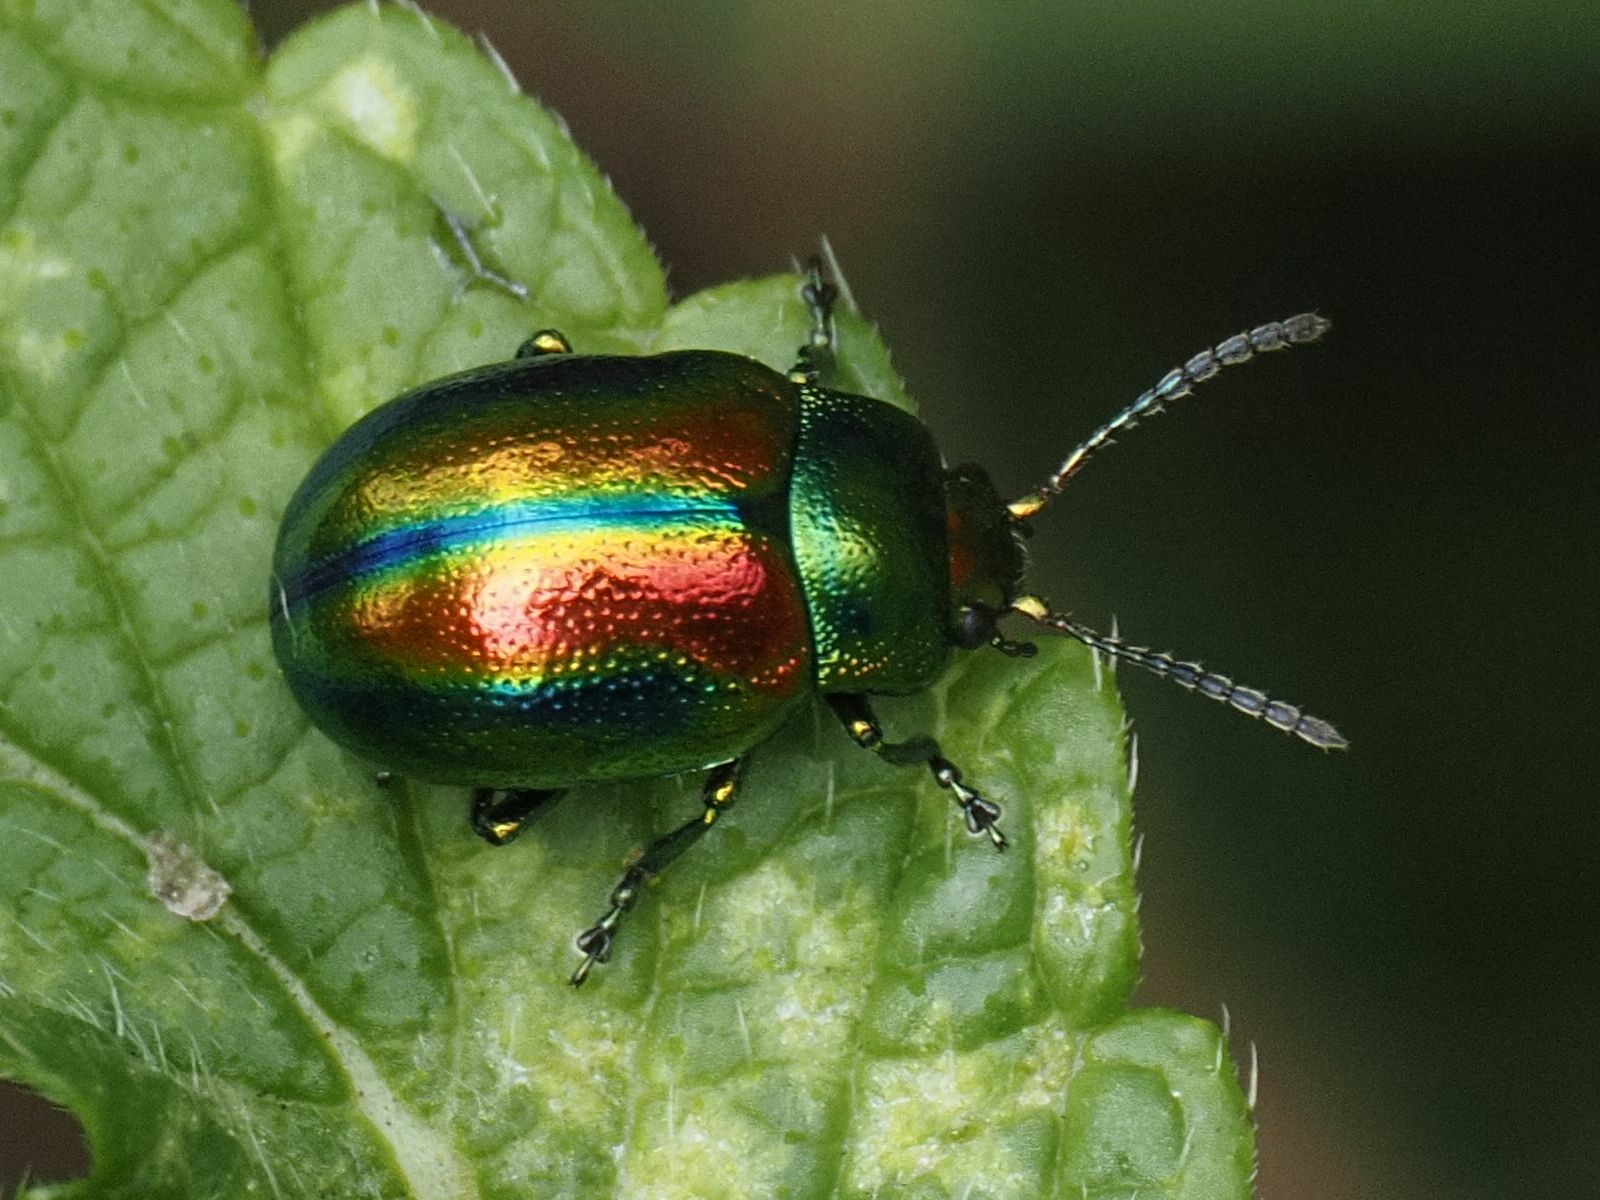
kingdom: Animalia
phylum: Arthropoda
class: Insecta
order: Coleoptera
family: Chrysomelidae
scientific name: Chrysomelidae
